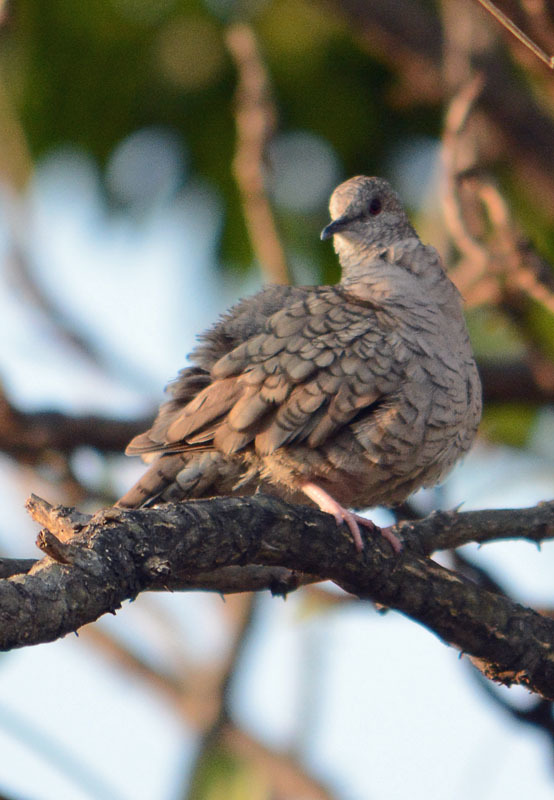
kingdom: Animalia
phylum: Chordata
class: Aves
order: Columbiformes
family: Columbidae
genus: Columbina
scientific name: Columbina inca
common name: Inca dove
